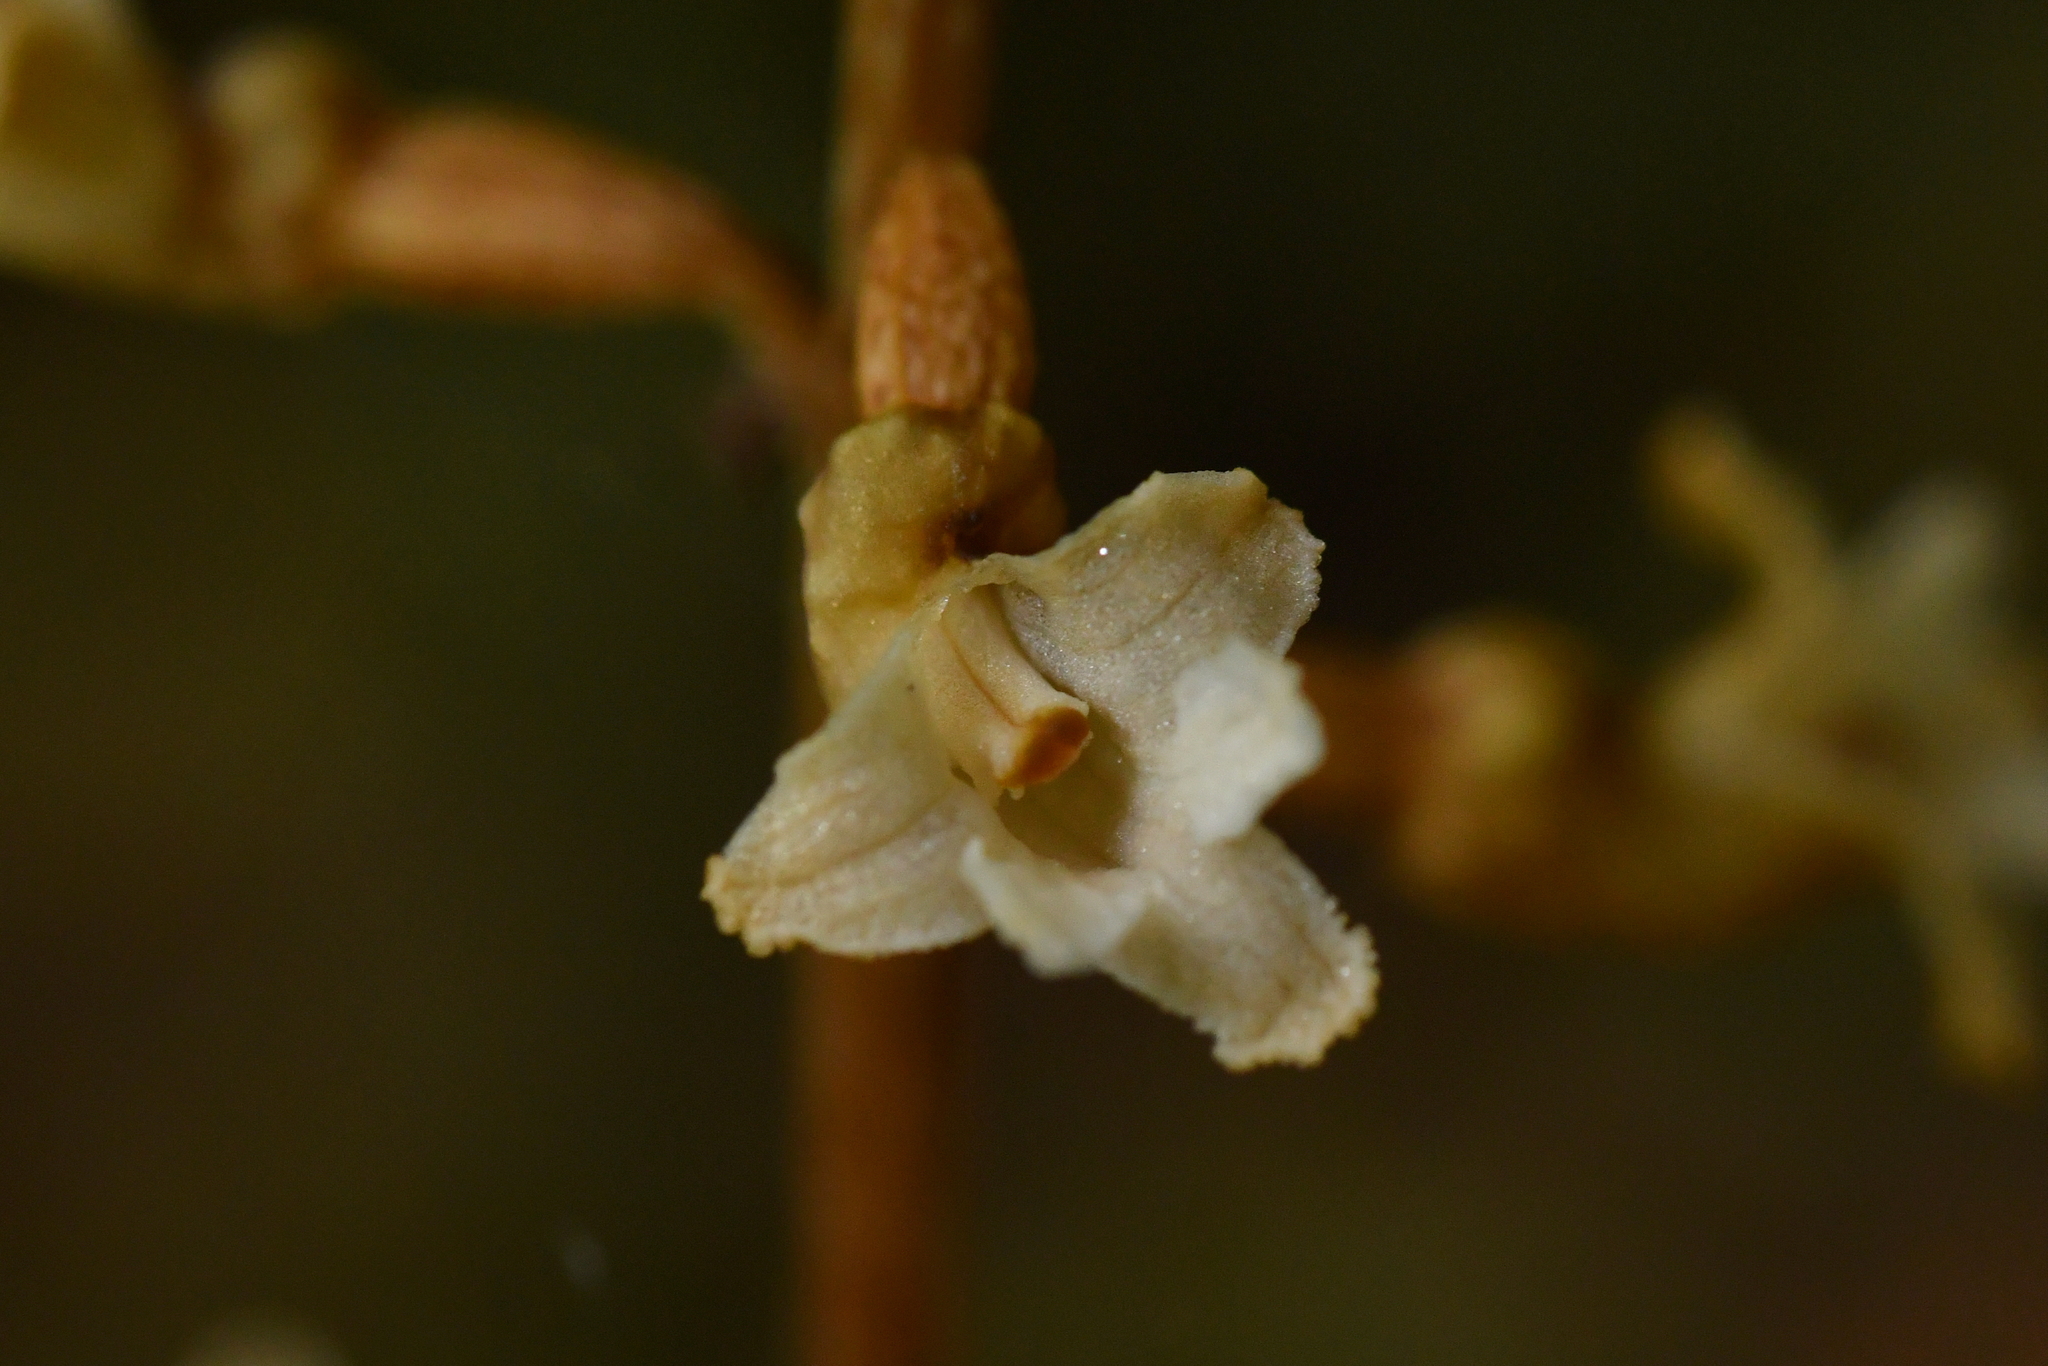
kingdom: Plantae
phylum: Tracheophyta
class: Liliopsida
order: Asparagales
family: Orchidaceae
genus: Gastrodia
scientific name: Gastrodia cunninghamii
